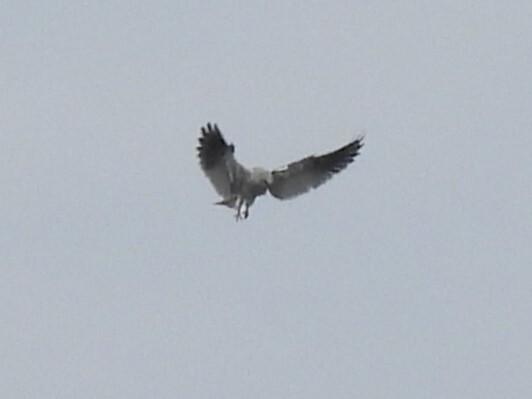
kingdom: Animalia
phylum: Chordata
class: Aves
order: Accipitriformes
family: Accipitridae
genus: Elanus
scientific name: Elanus leucurus
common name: White-tailed kite
